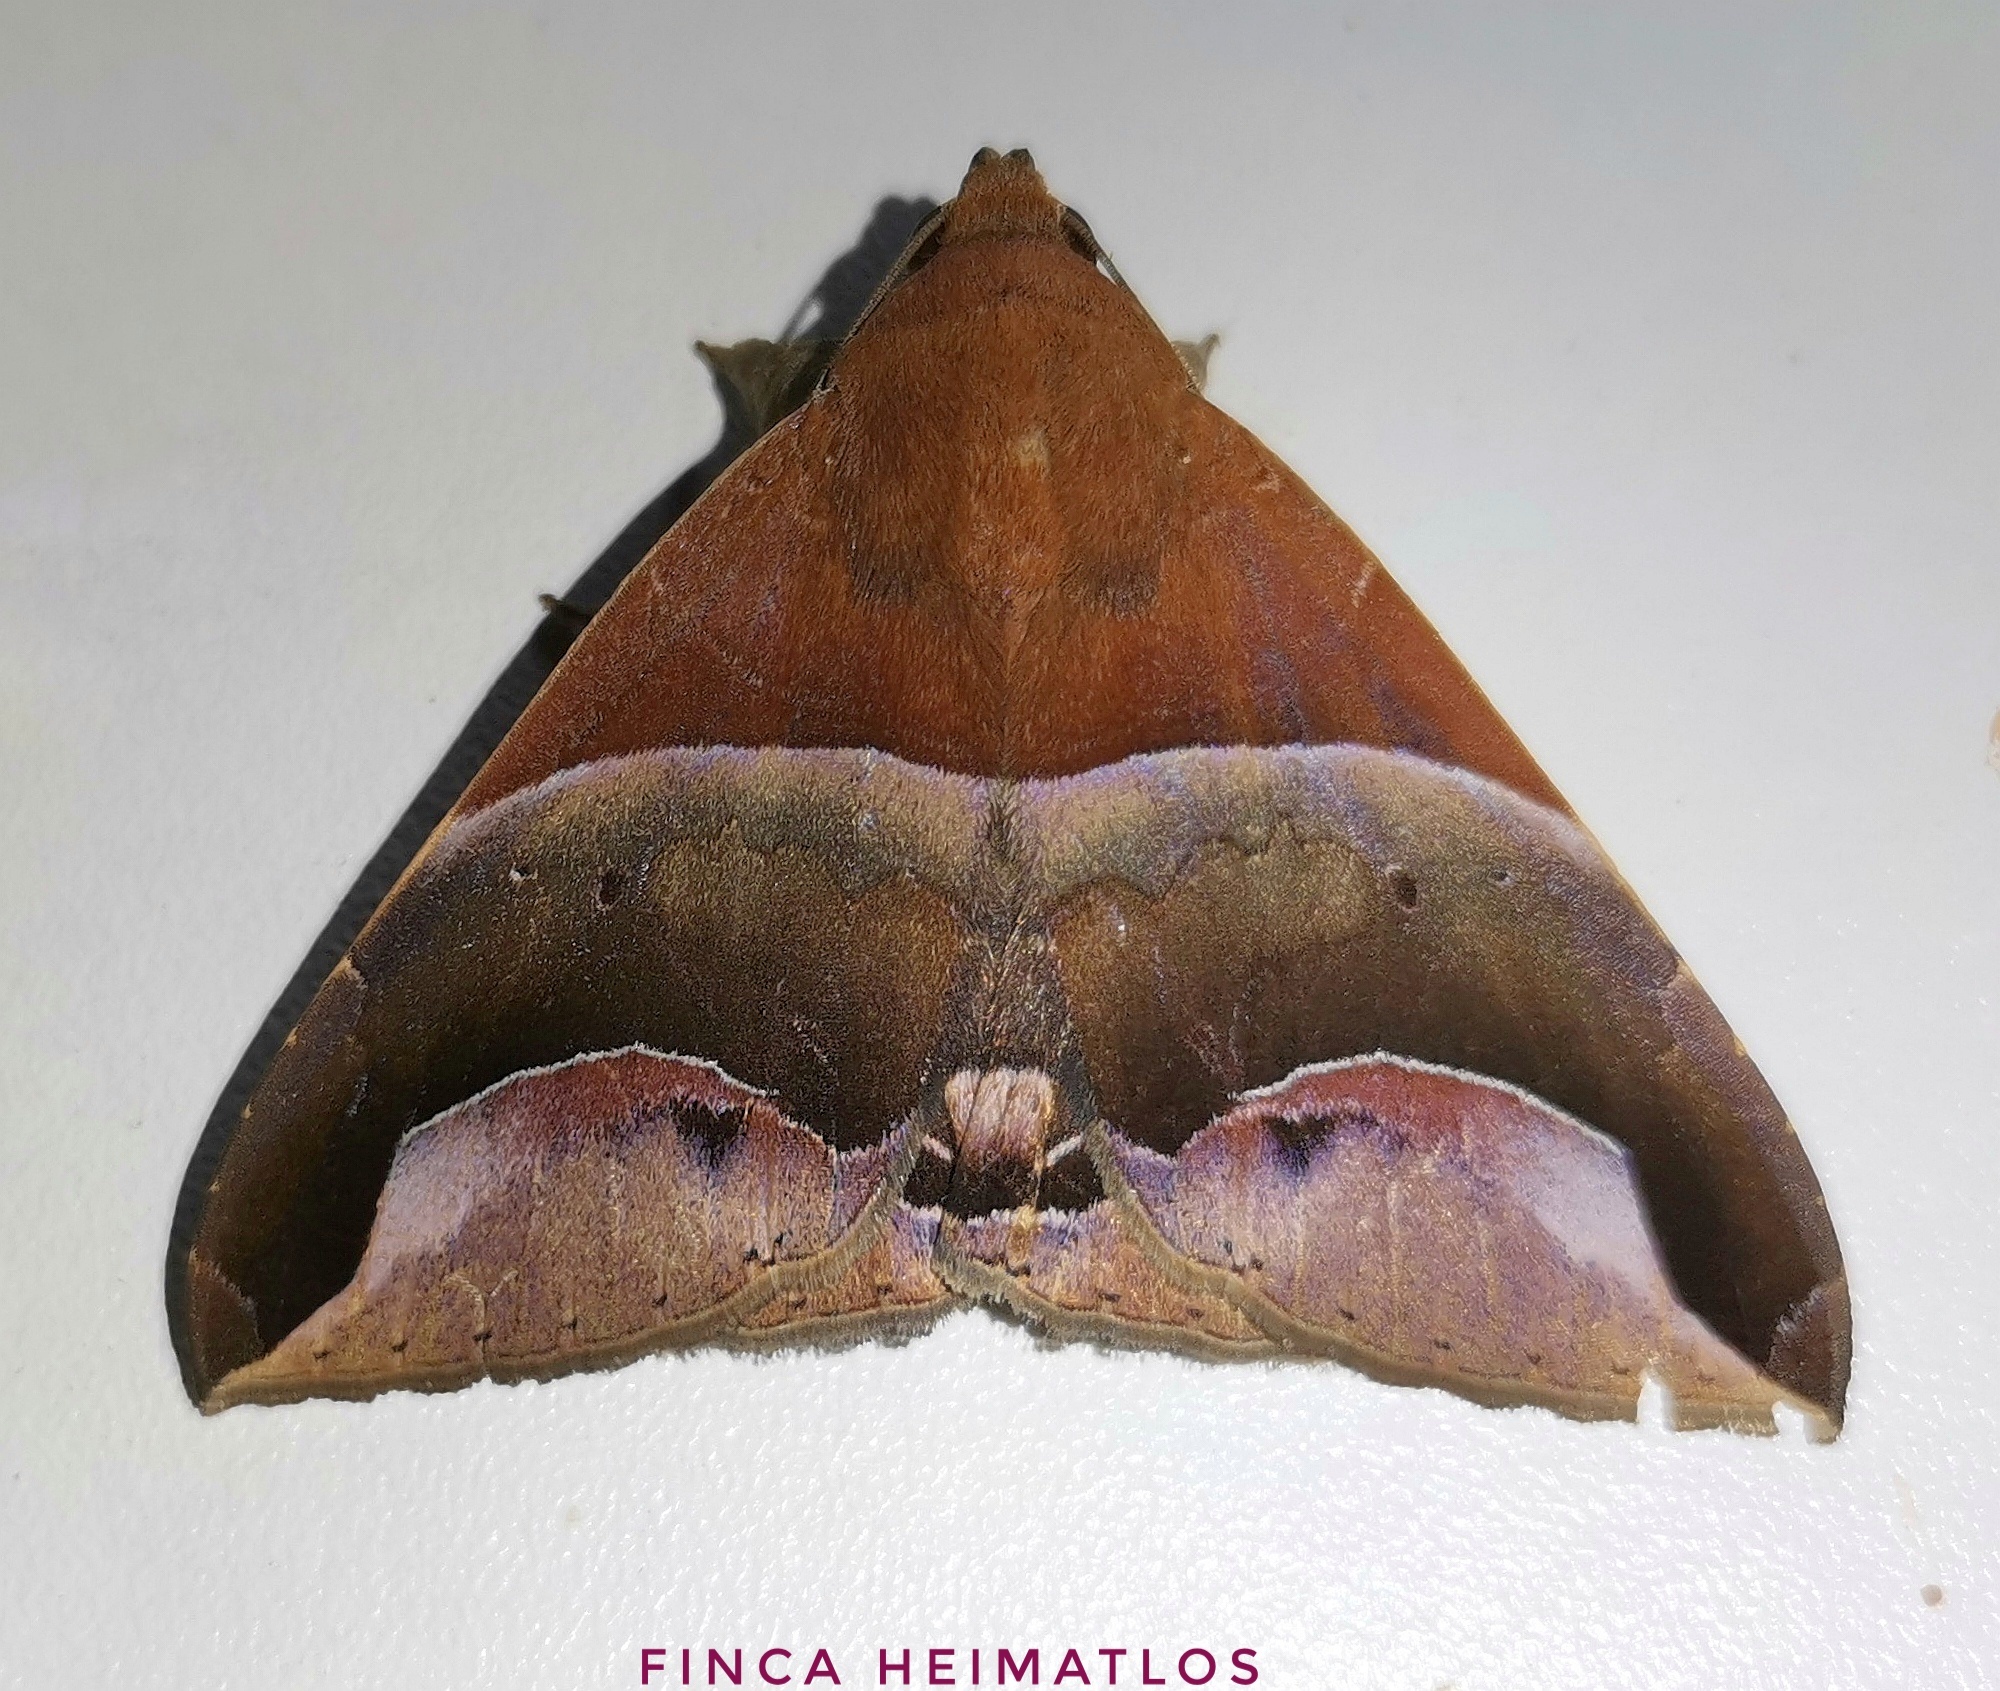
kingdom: Animalia
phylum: Arthropoda
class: Insecta
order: Lepidoptera
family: Erebidae
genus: Parachaea
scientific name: Parachaea macaria
